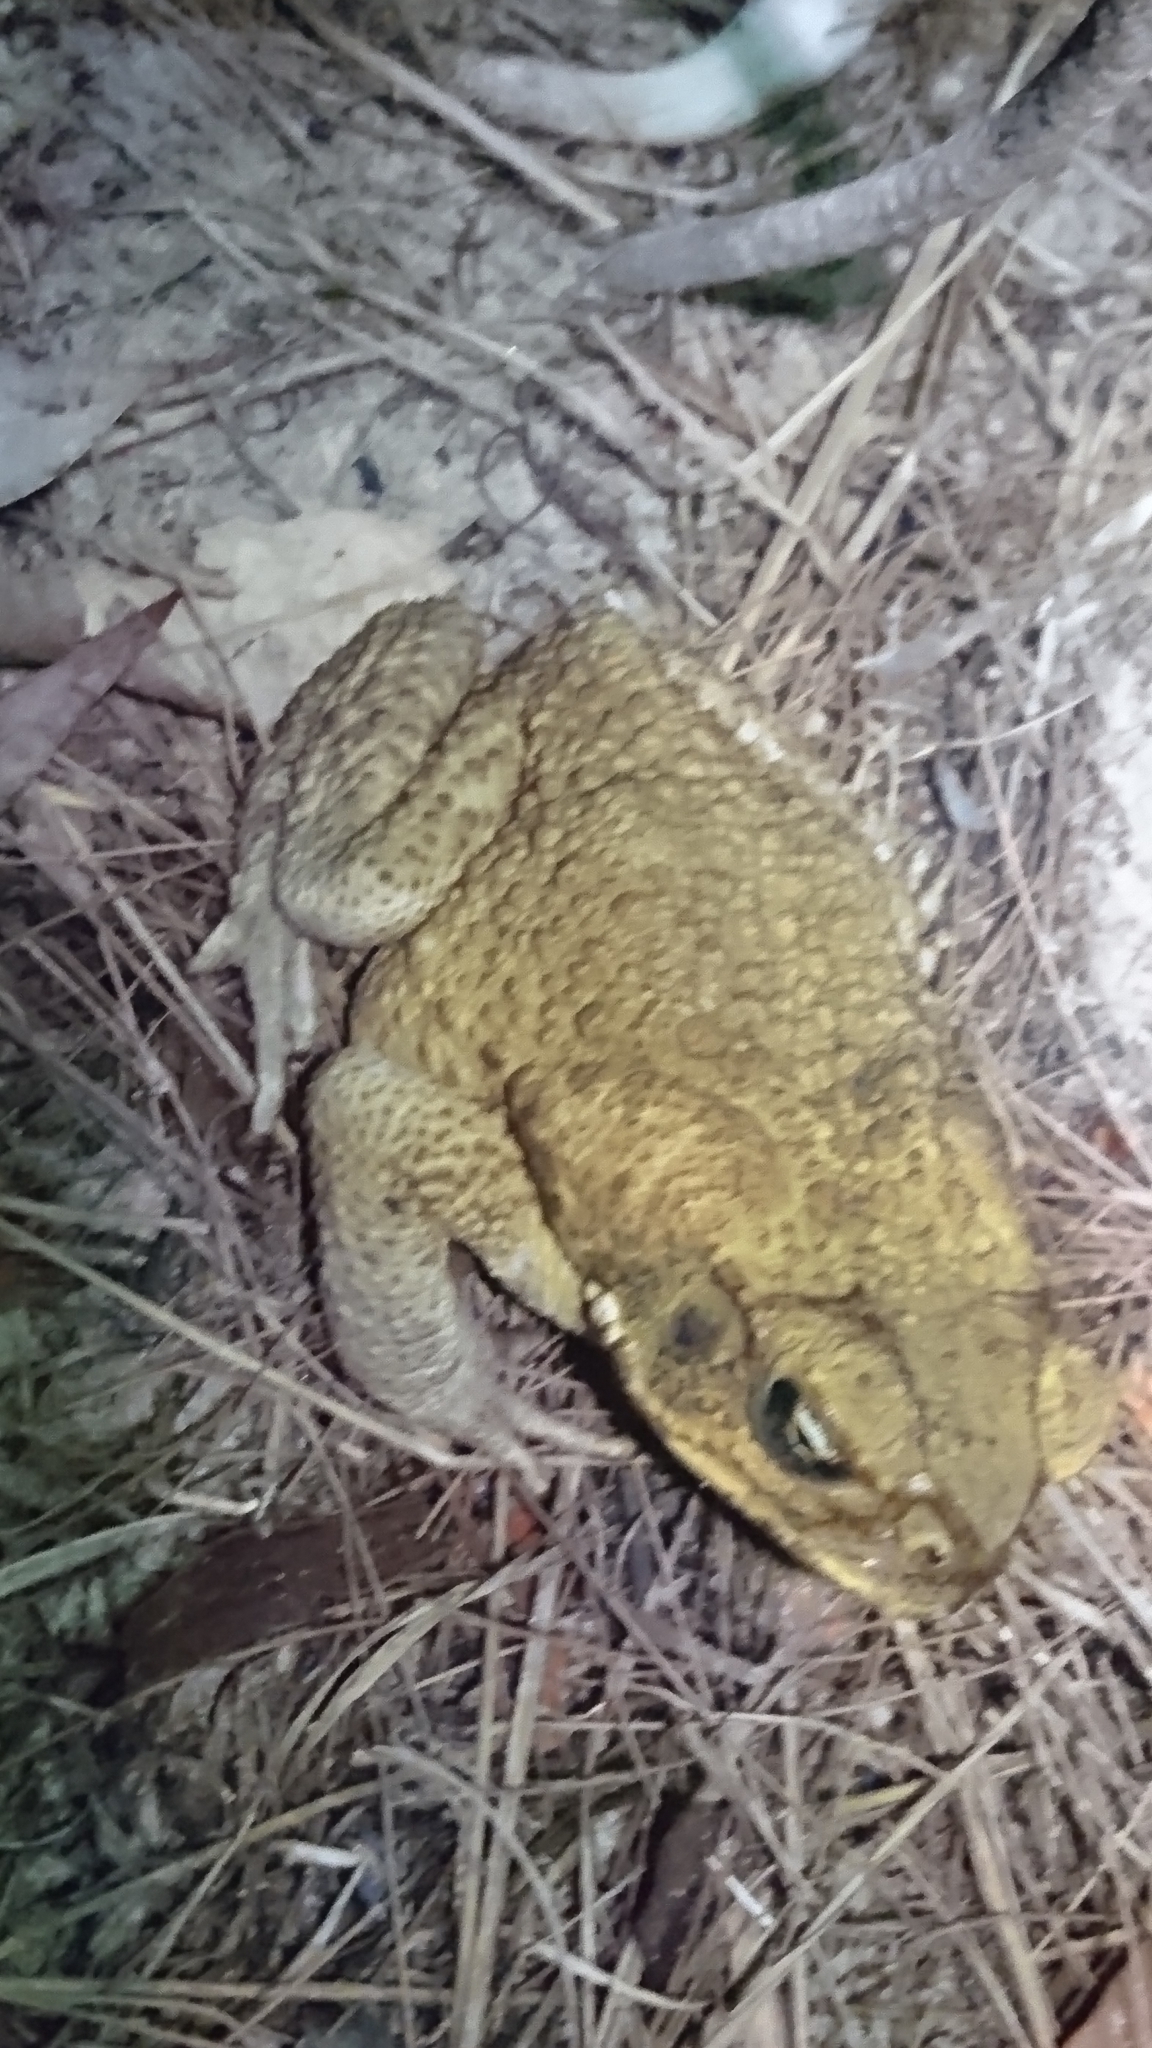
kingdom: Animalia
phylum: Chordata
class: Amphibia
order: Anura
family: Bufonidae
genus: Rhinella
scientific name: Rhinella marina
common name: Cane toad
